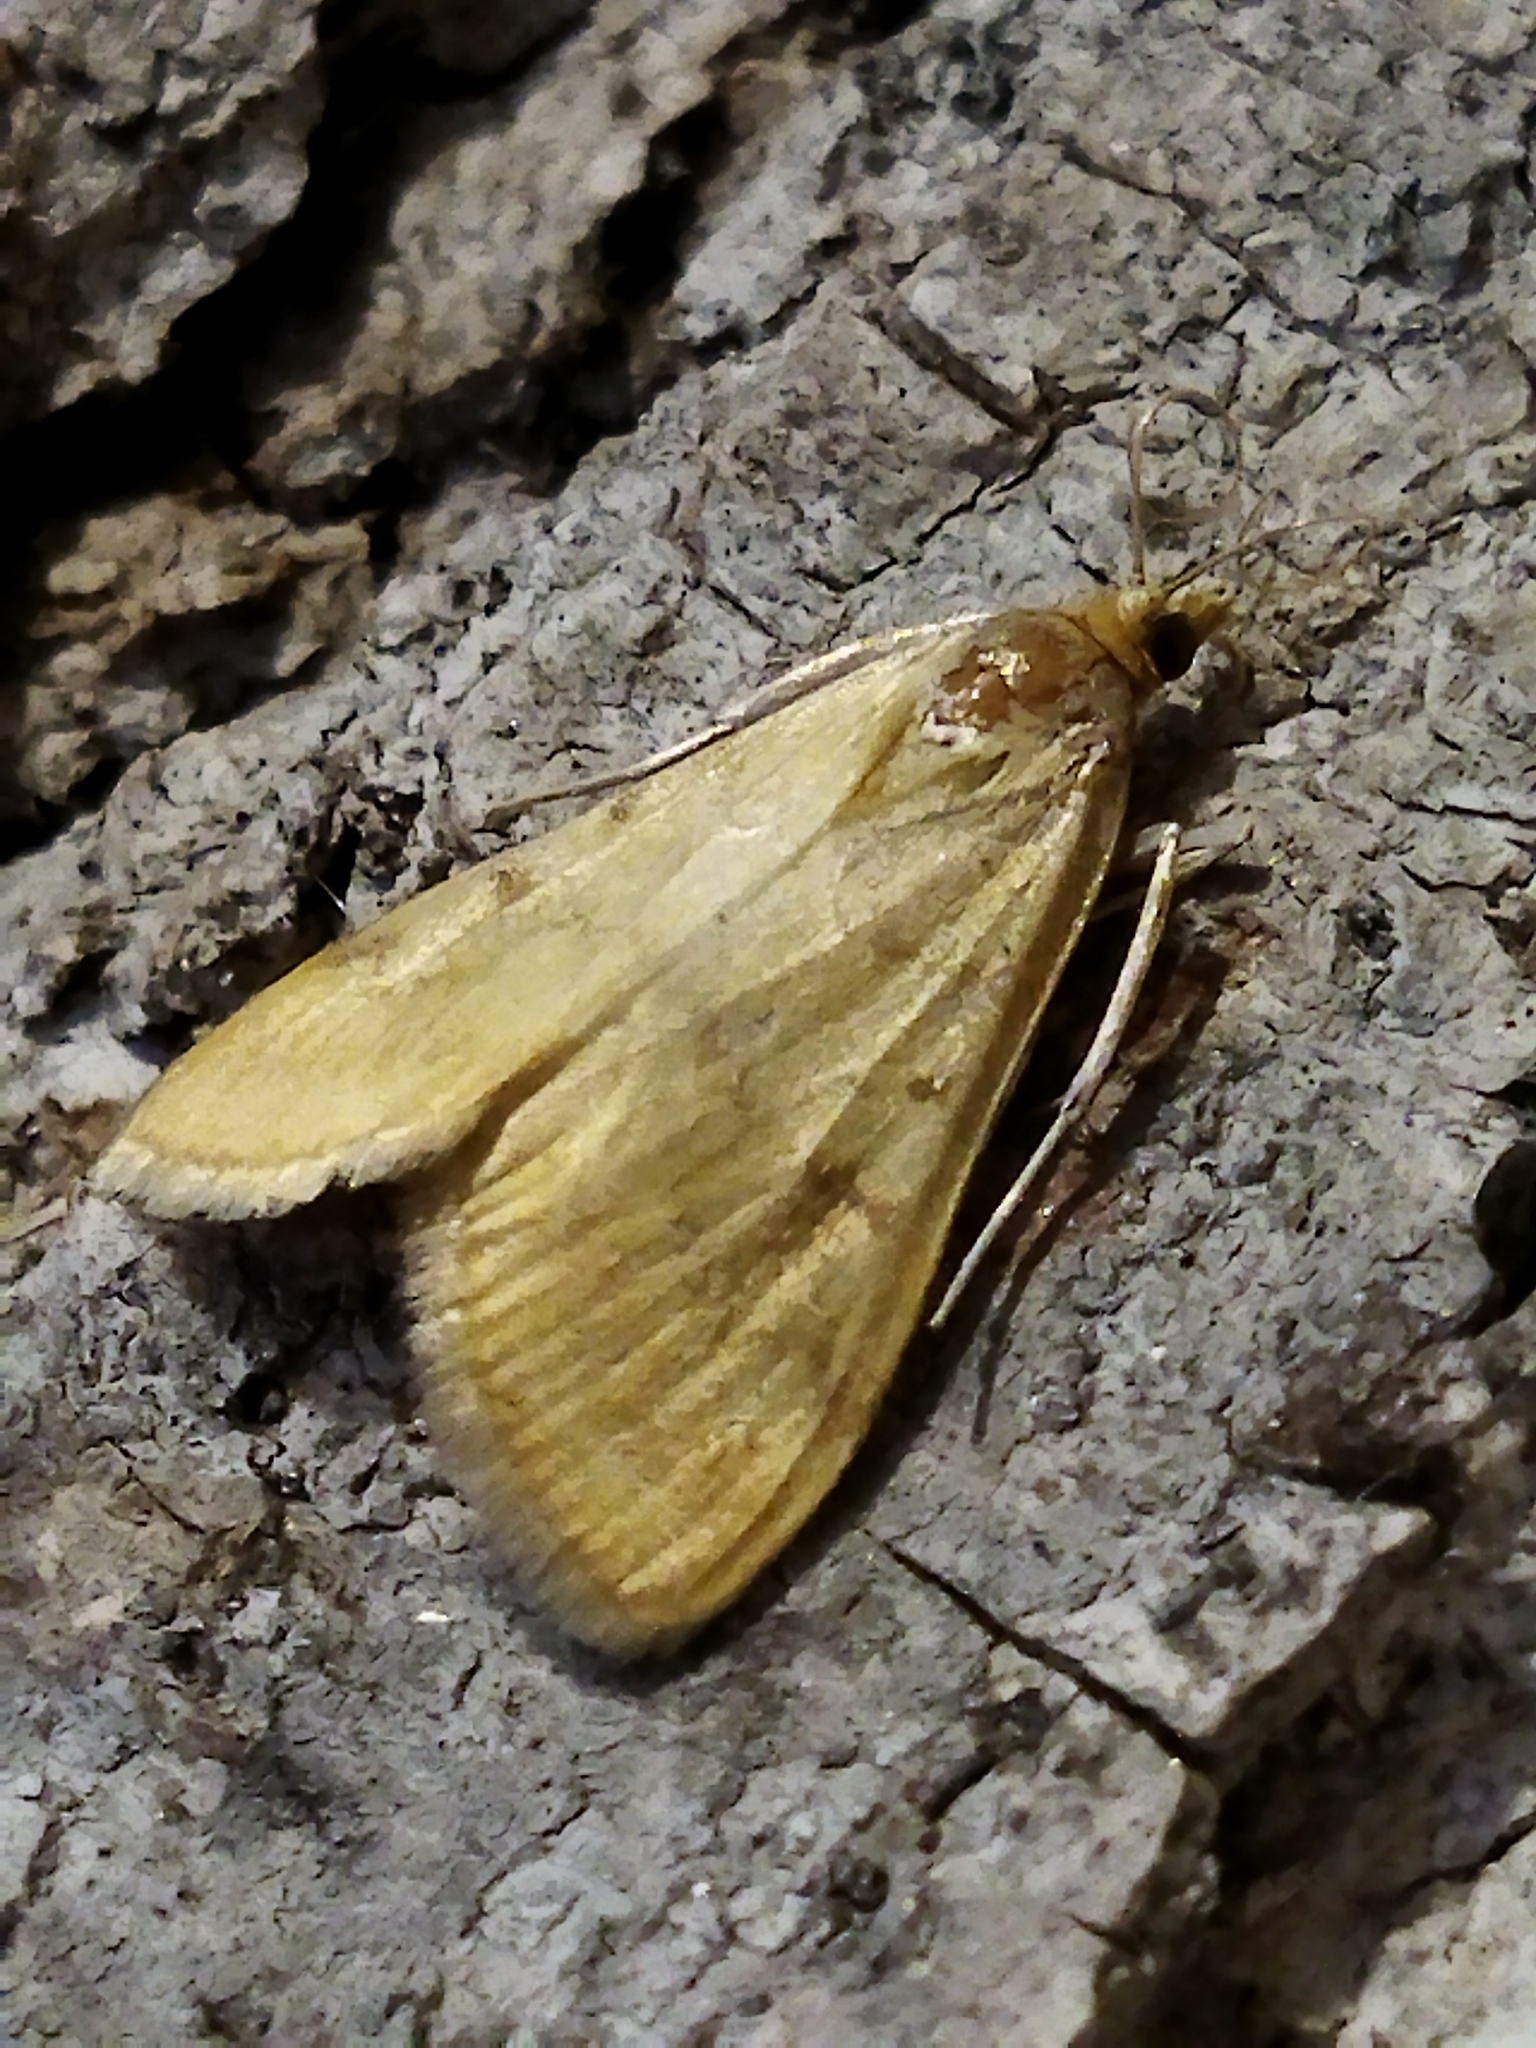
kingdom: Animalia
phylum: Arthropoda
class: Insecta
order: Lepidoptera
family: Crambidae
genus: Ostrinia
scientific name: Ostrinia nubilalis
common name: European corn borer
